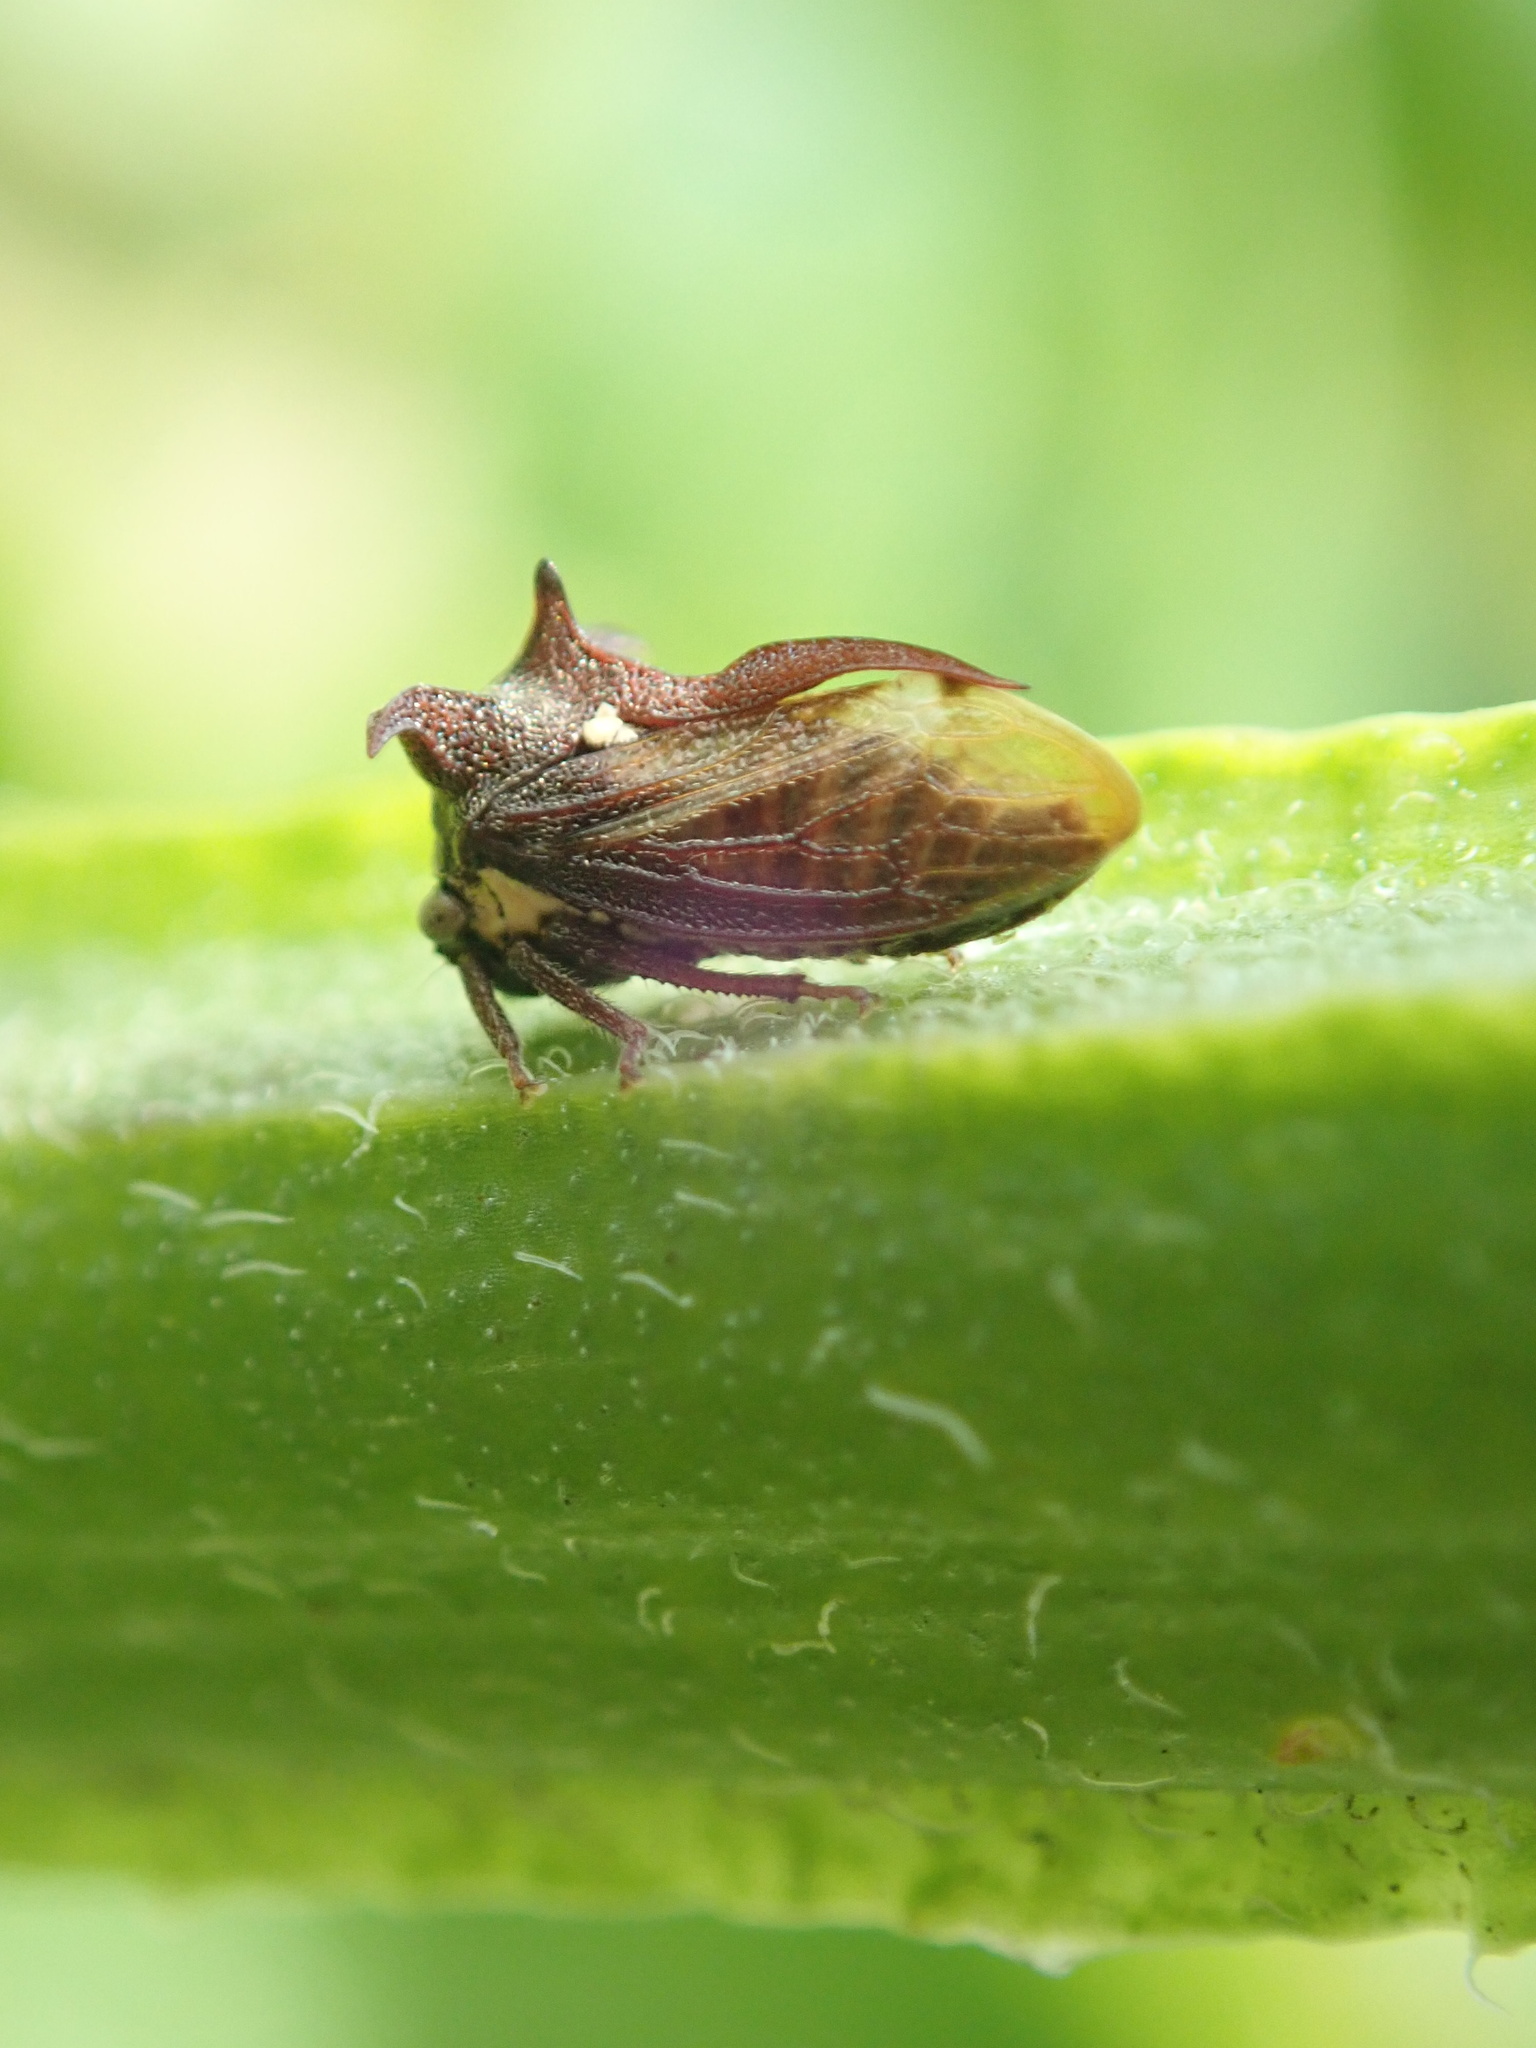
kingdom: Animalia
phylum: Arthropoda
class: Insecta
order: Hemiptera
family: Membracidae
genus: Acanthuchus
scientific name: Acanthuchus trispinifer
